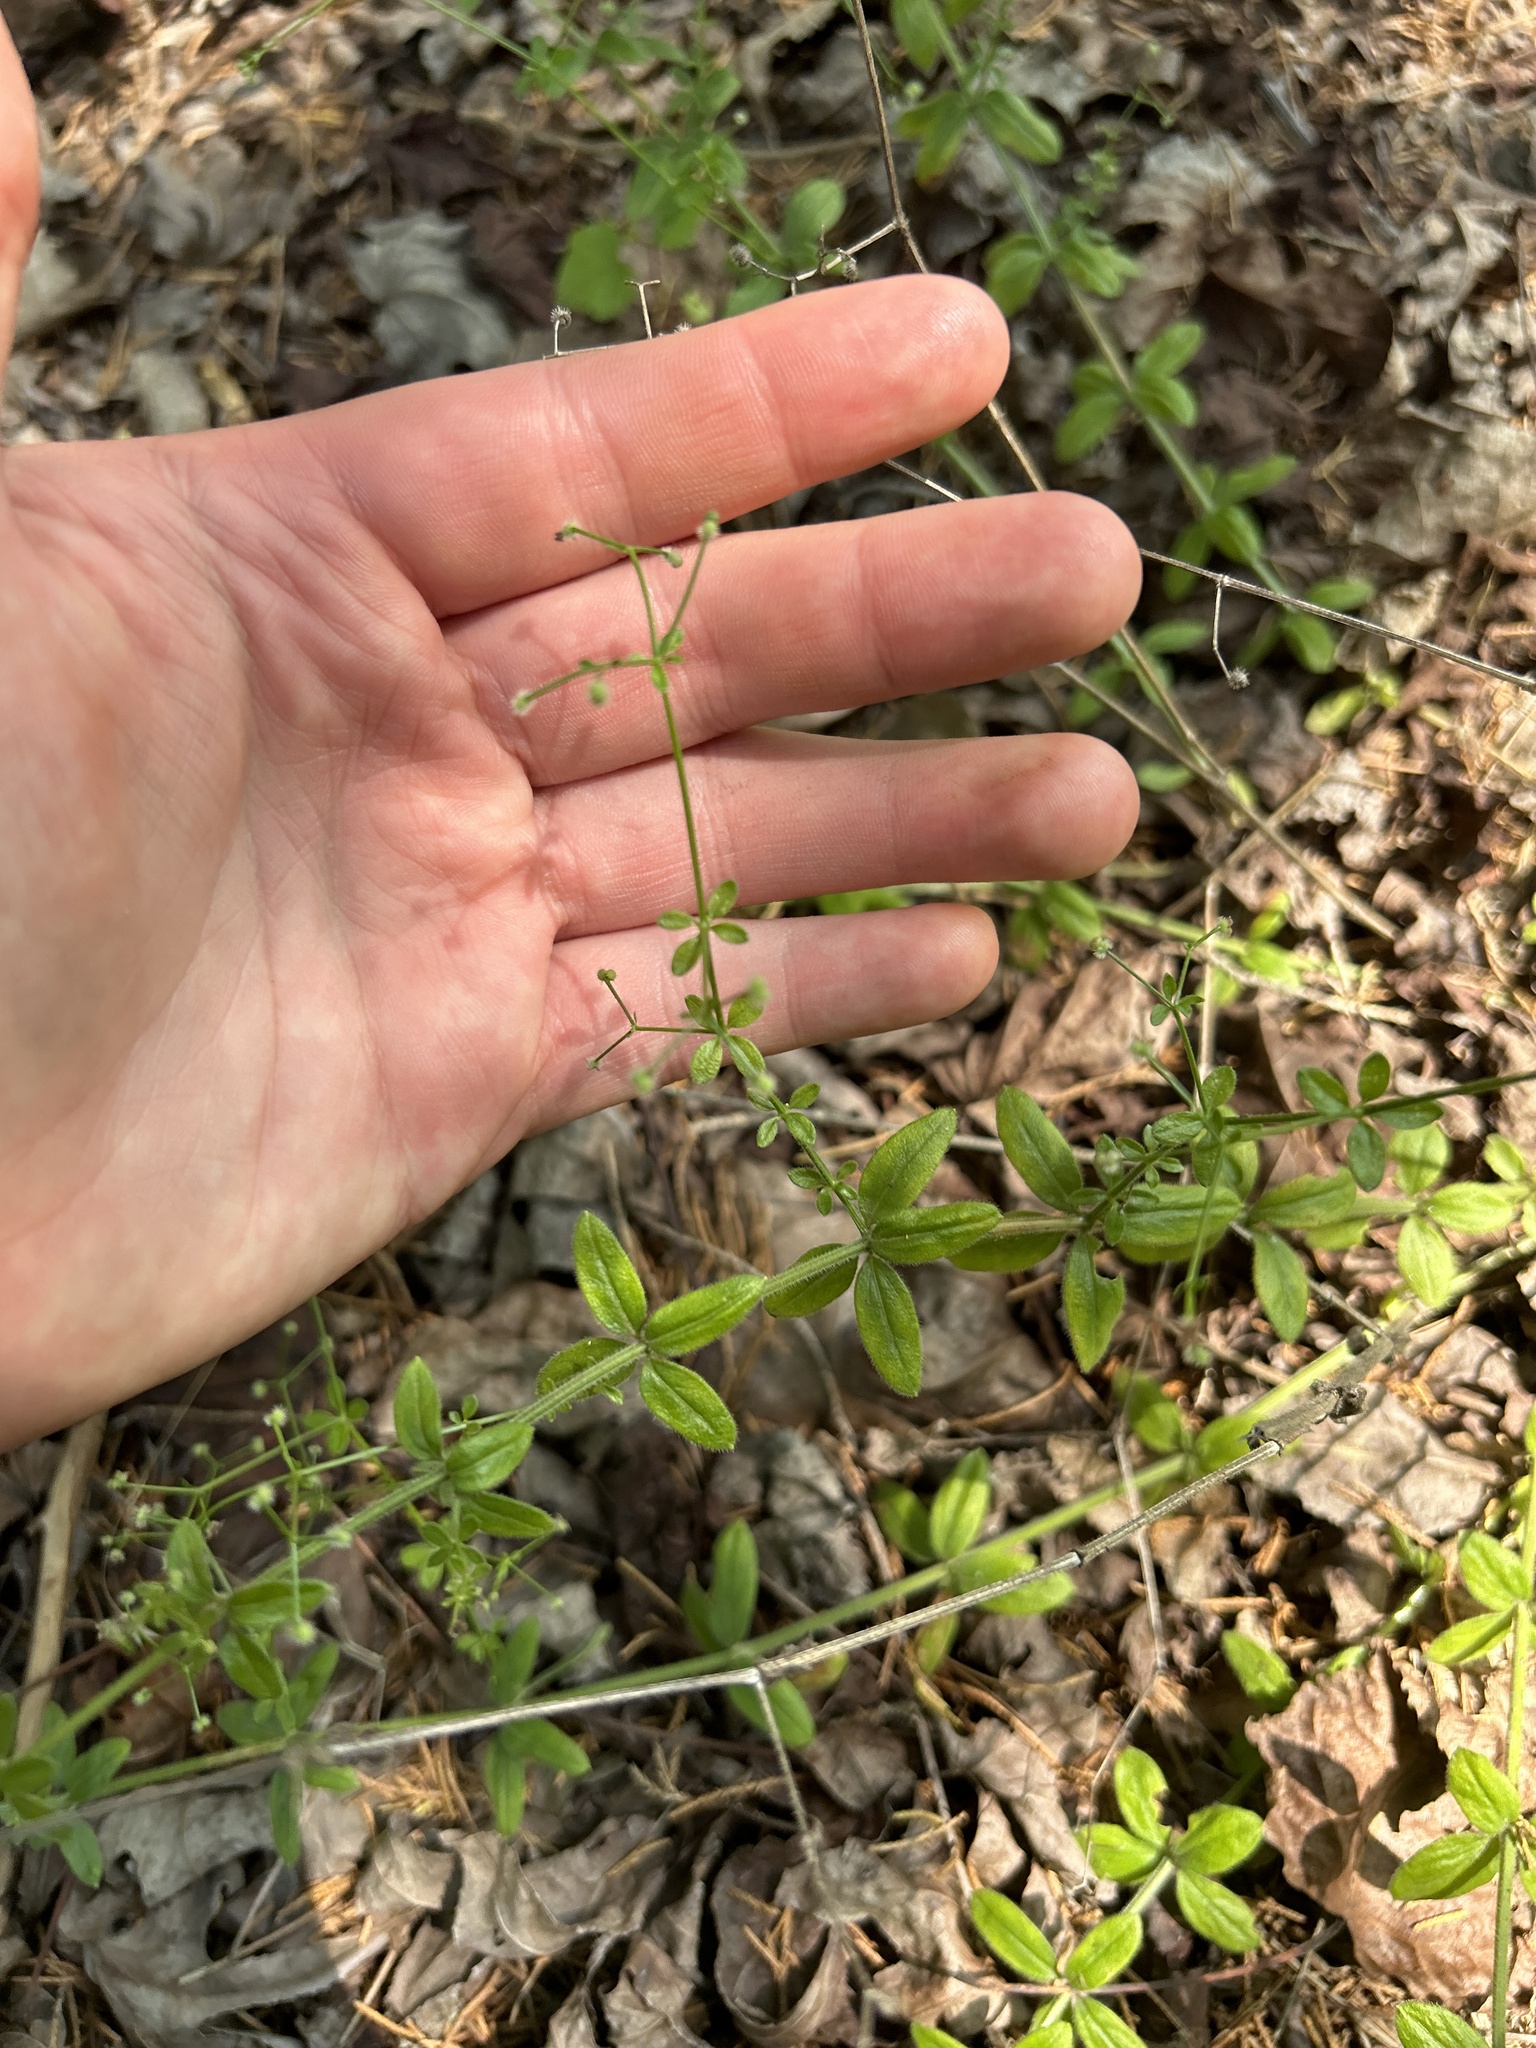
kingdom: Plantae
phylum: Tracheophyta
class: Magnoliopsida
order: Gentianales
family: Rubiaceae
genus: Galium
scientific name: Galium pilosum
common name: Hairy bedstraw
